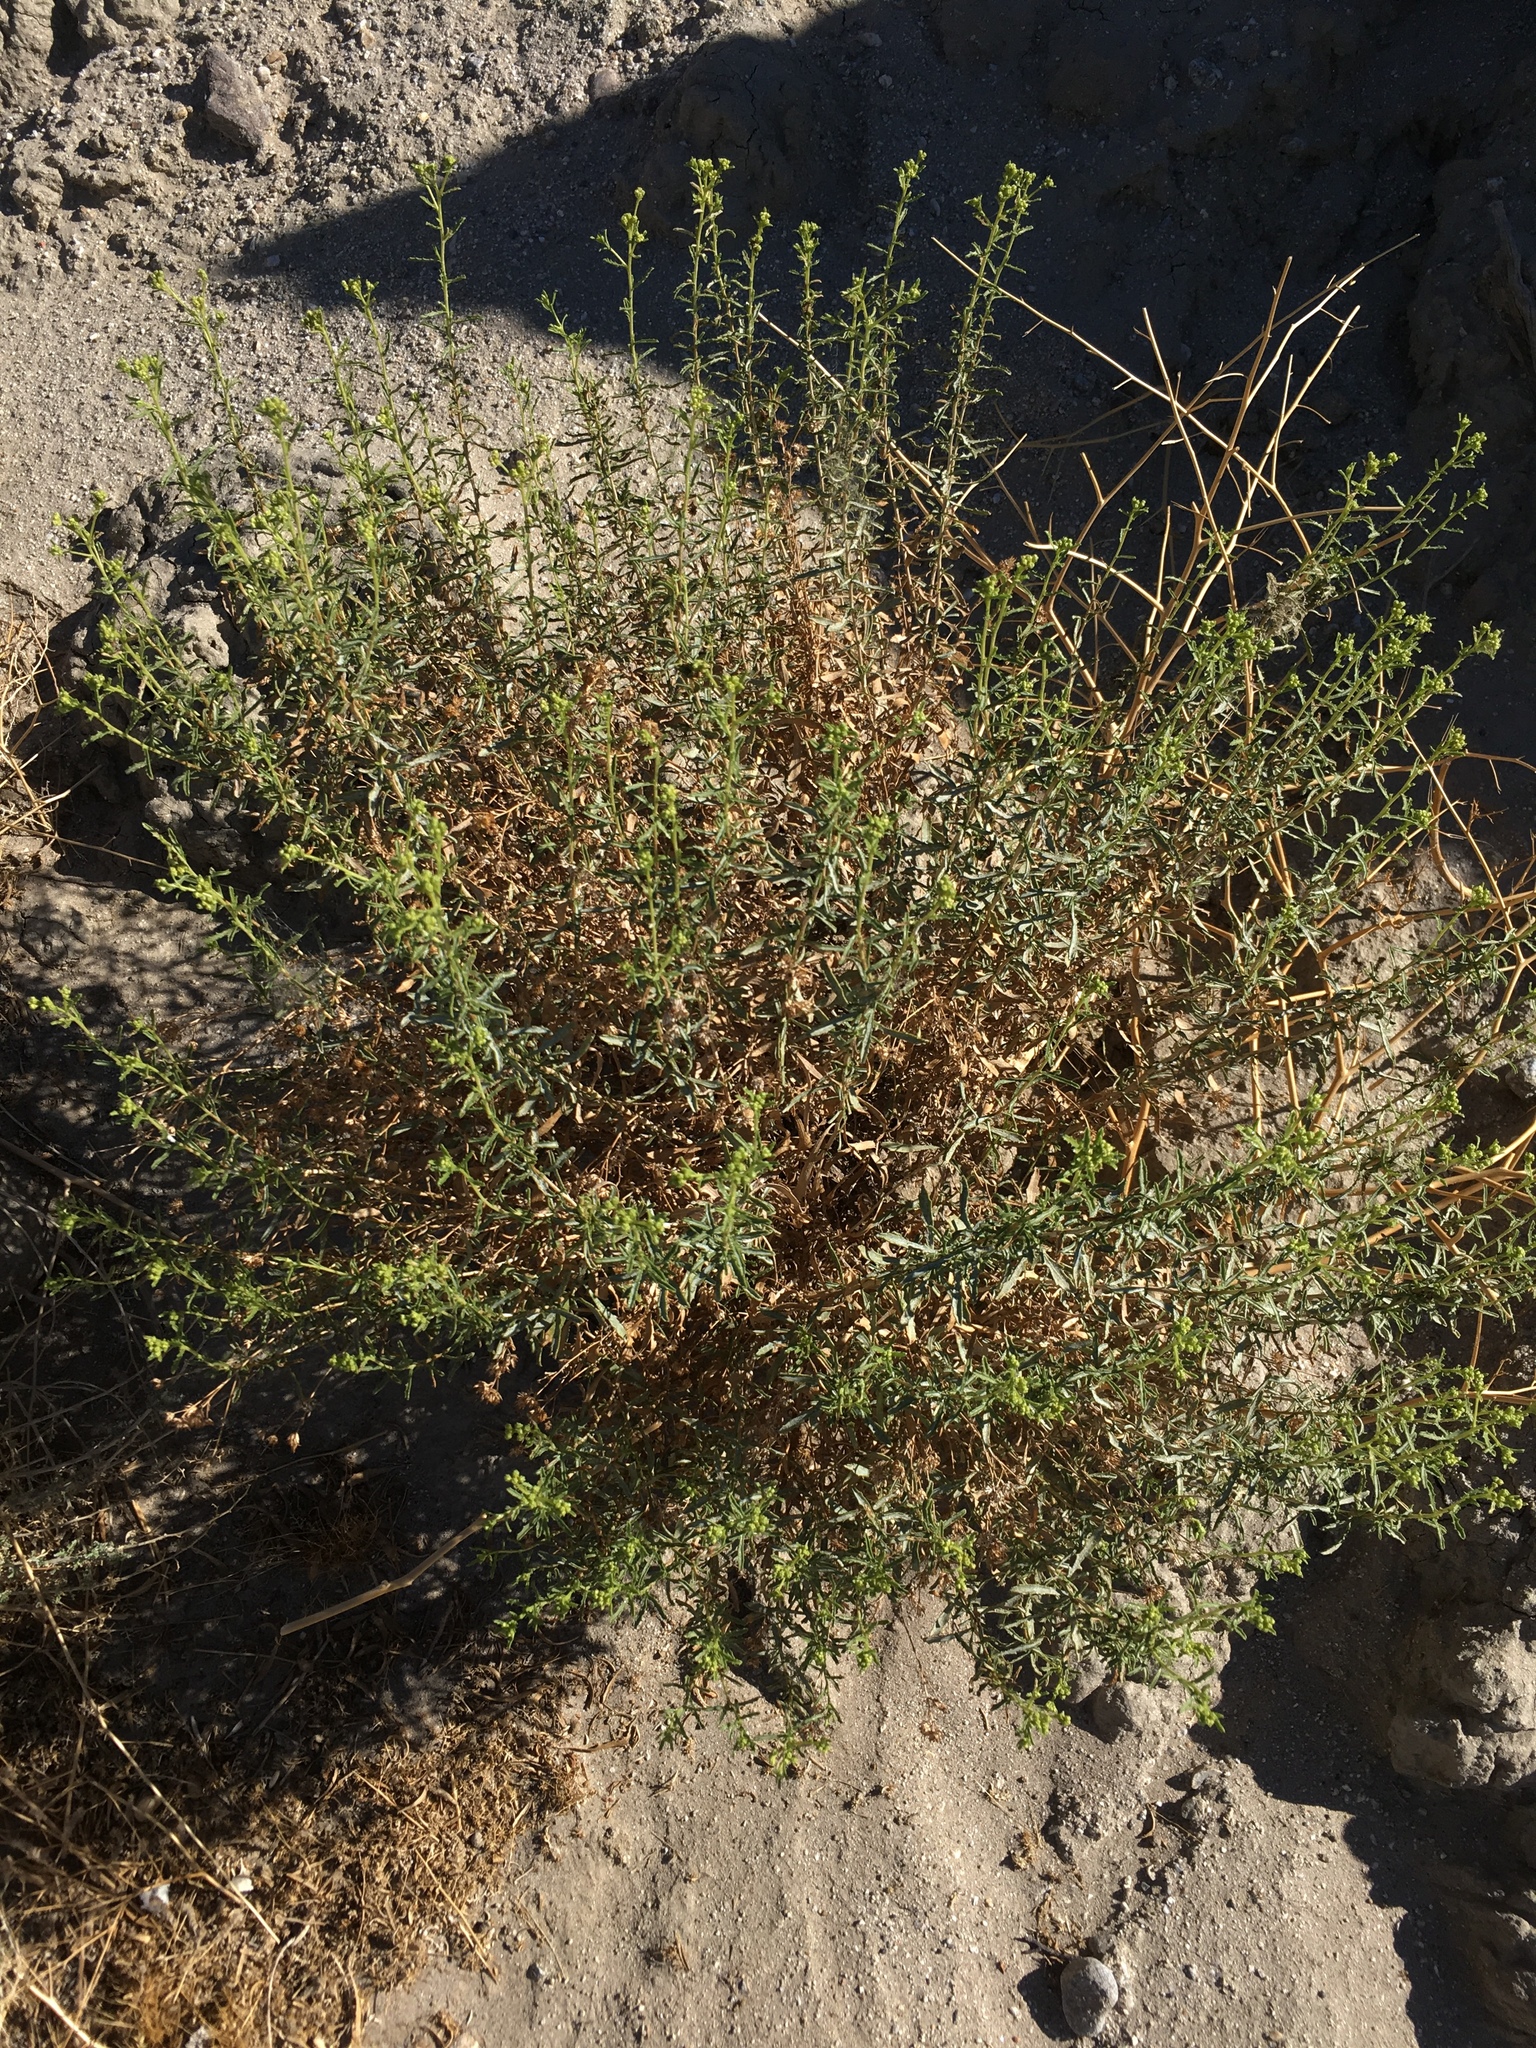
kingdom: Plantae
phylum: Tracheophyta
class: Magnoliopsida
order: Asterales
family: Asteraceae
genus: Isocoma
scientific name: Isocoma acradenia
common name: Alkali jimmyweed
